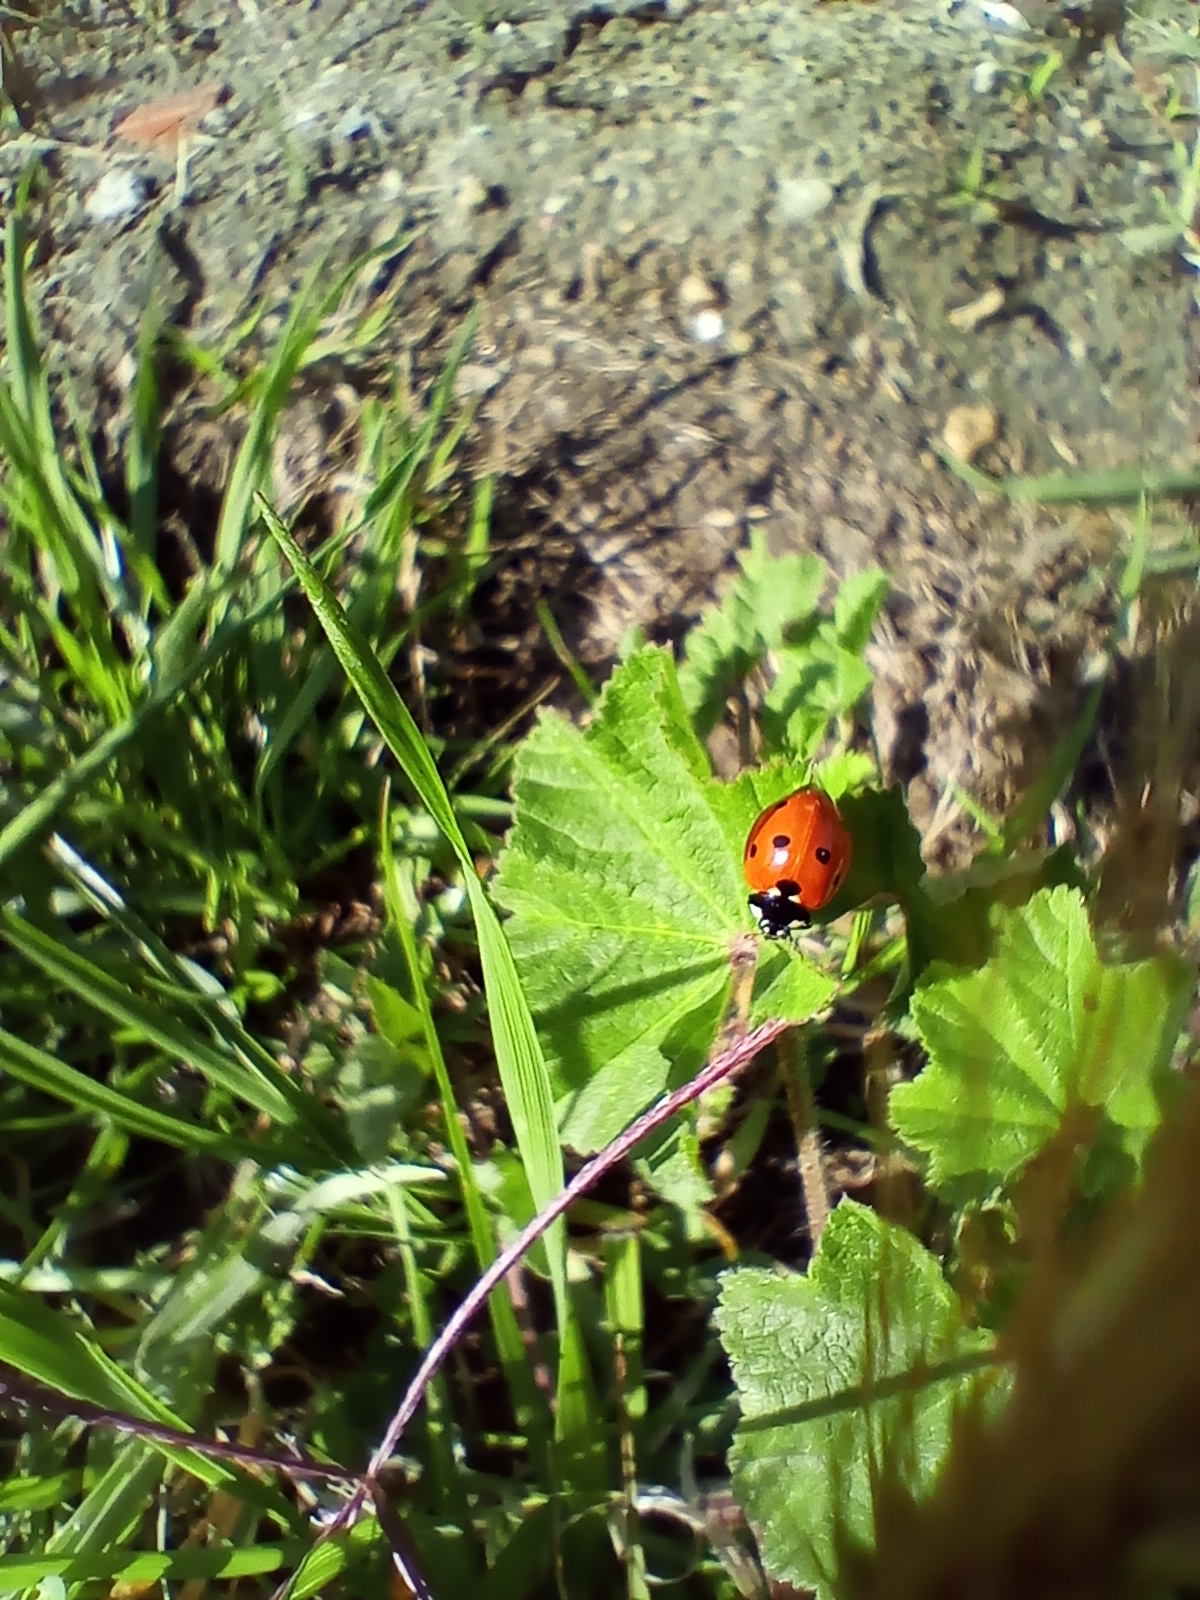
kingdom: Animalia
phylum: Arthropoda
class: Insecta
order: Coleoptera
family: Coccinellidae
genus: Coccinella
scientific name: Coccinella septempunctata
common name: Sevenspotted lady beetle
